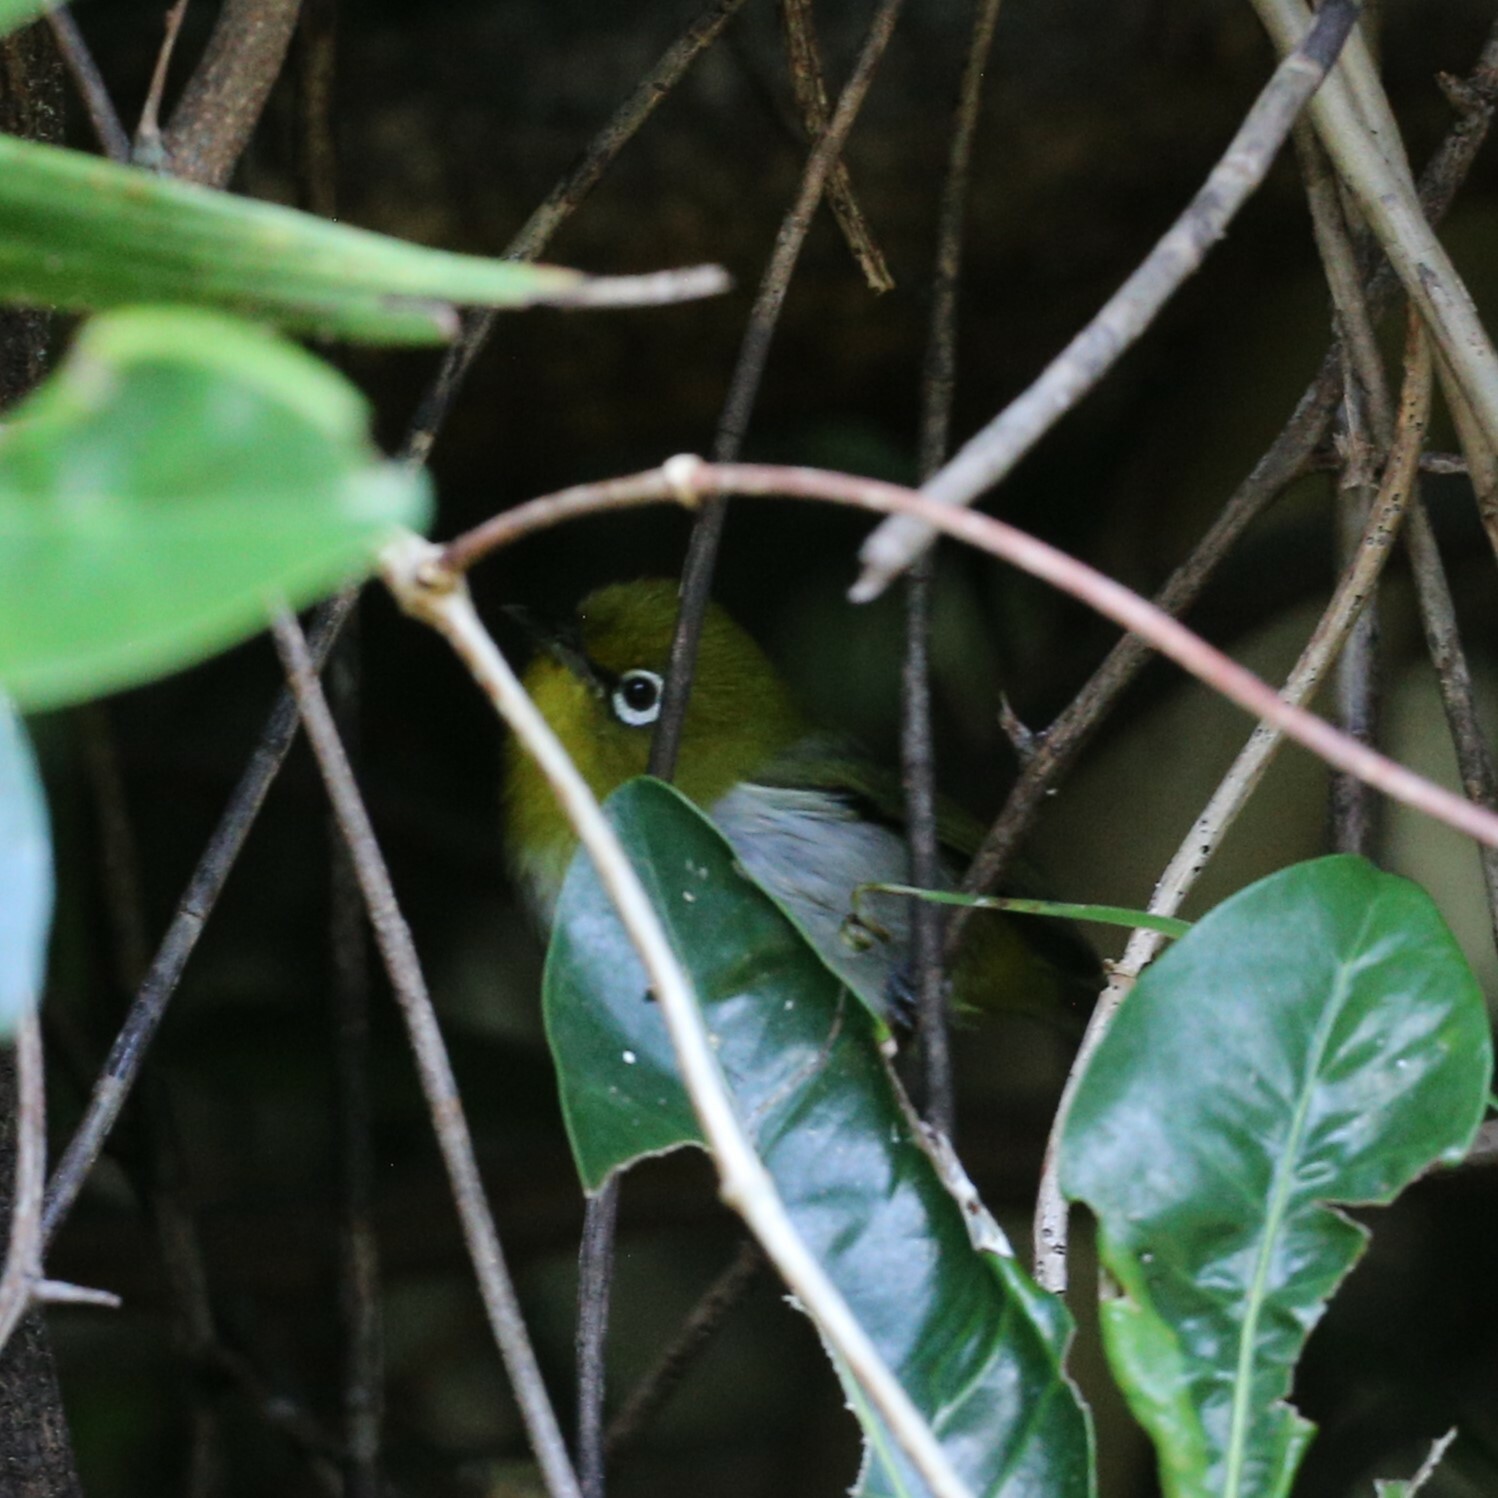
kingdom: Animalia
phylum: Chordata
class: Aves
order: Passeriformes
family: Zosteropidae
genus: Zosterops
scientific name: Zosterops japonicus
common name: Japanese white-eye
